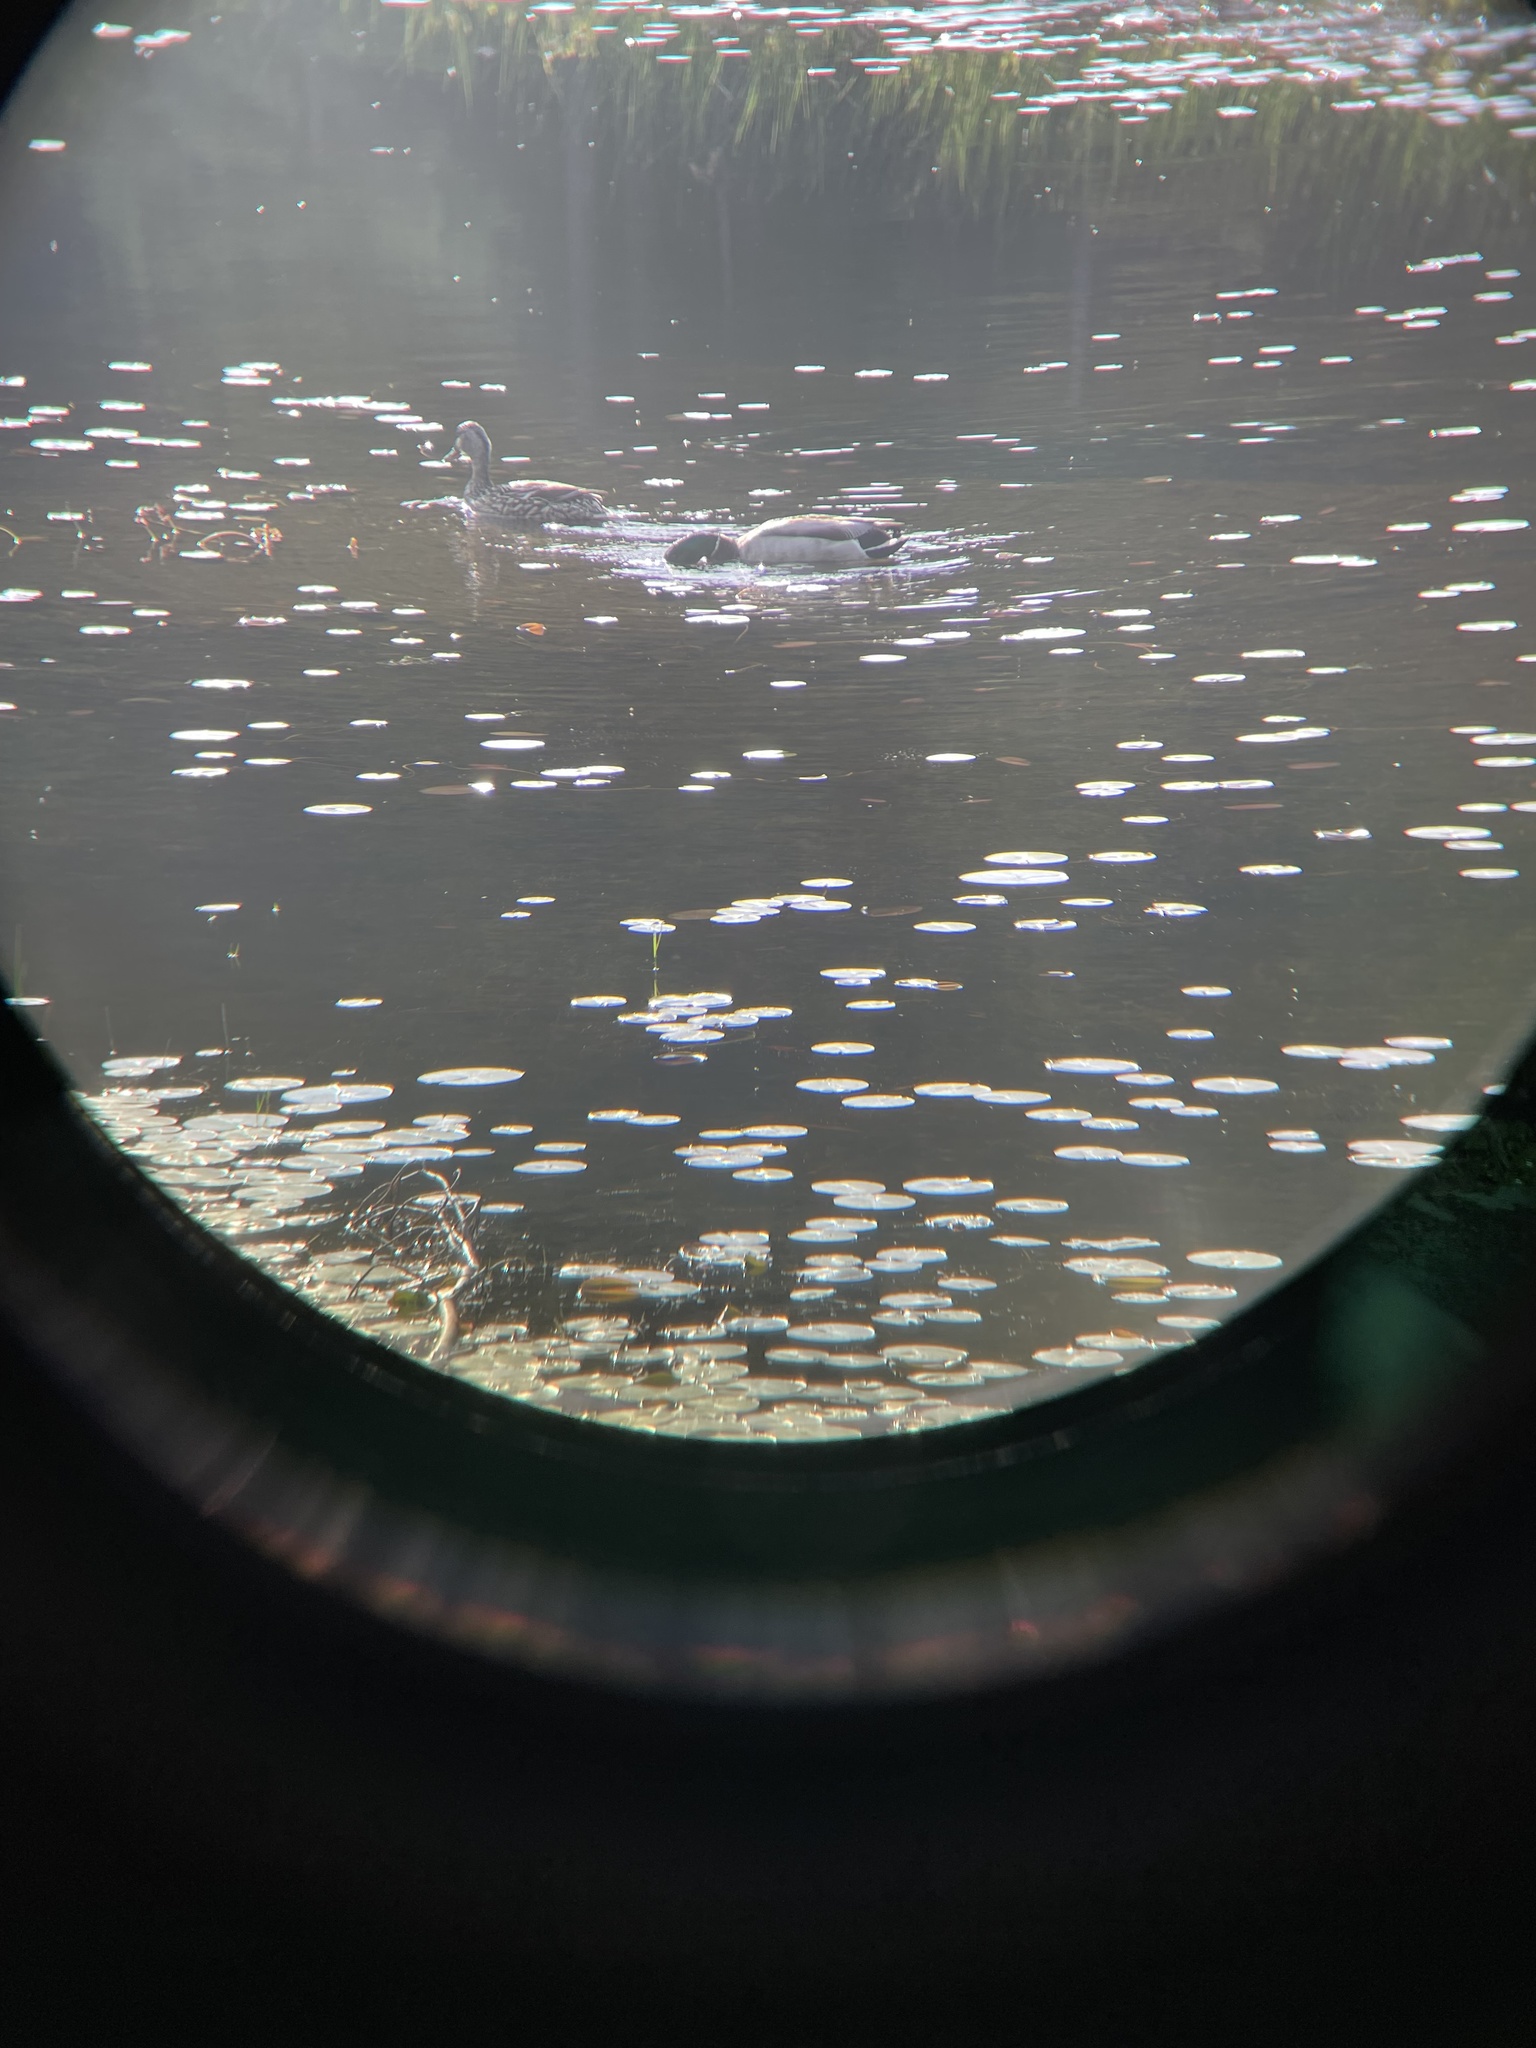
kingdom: Animalia
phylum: Chordata
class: Aves
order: Anseriformes
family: Anatidae
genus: Anas
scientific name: Anas platyrhynchos
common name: Mallard
